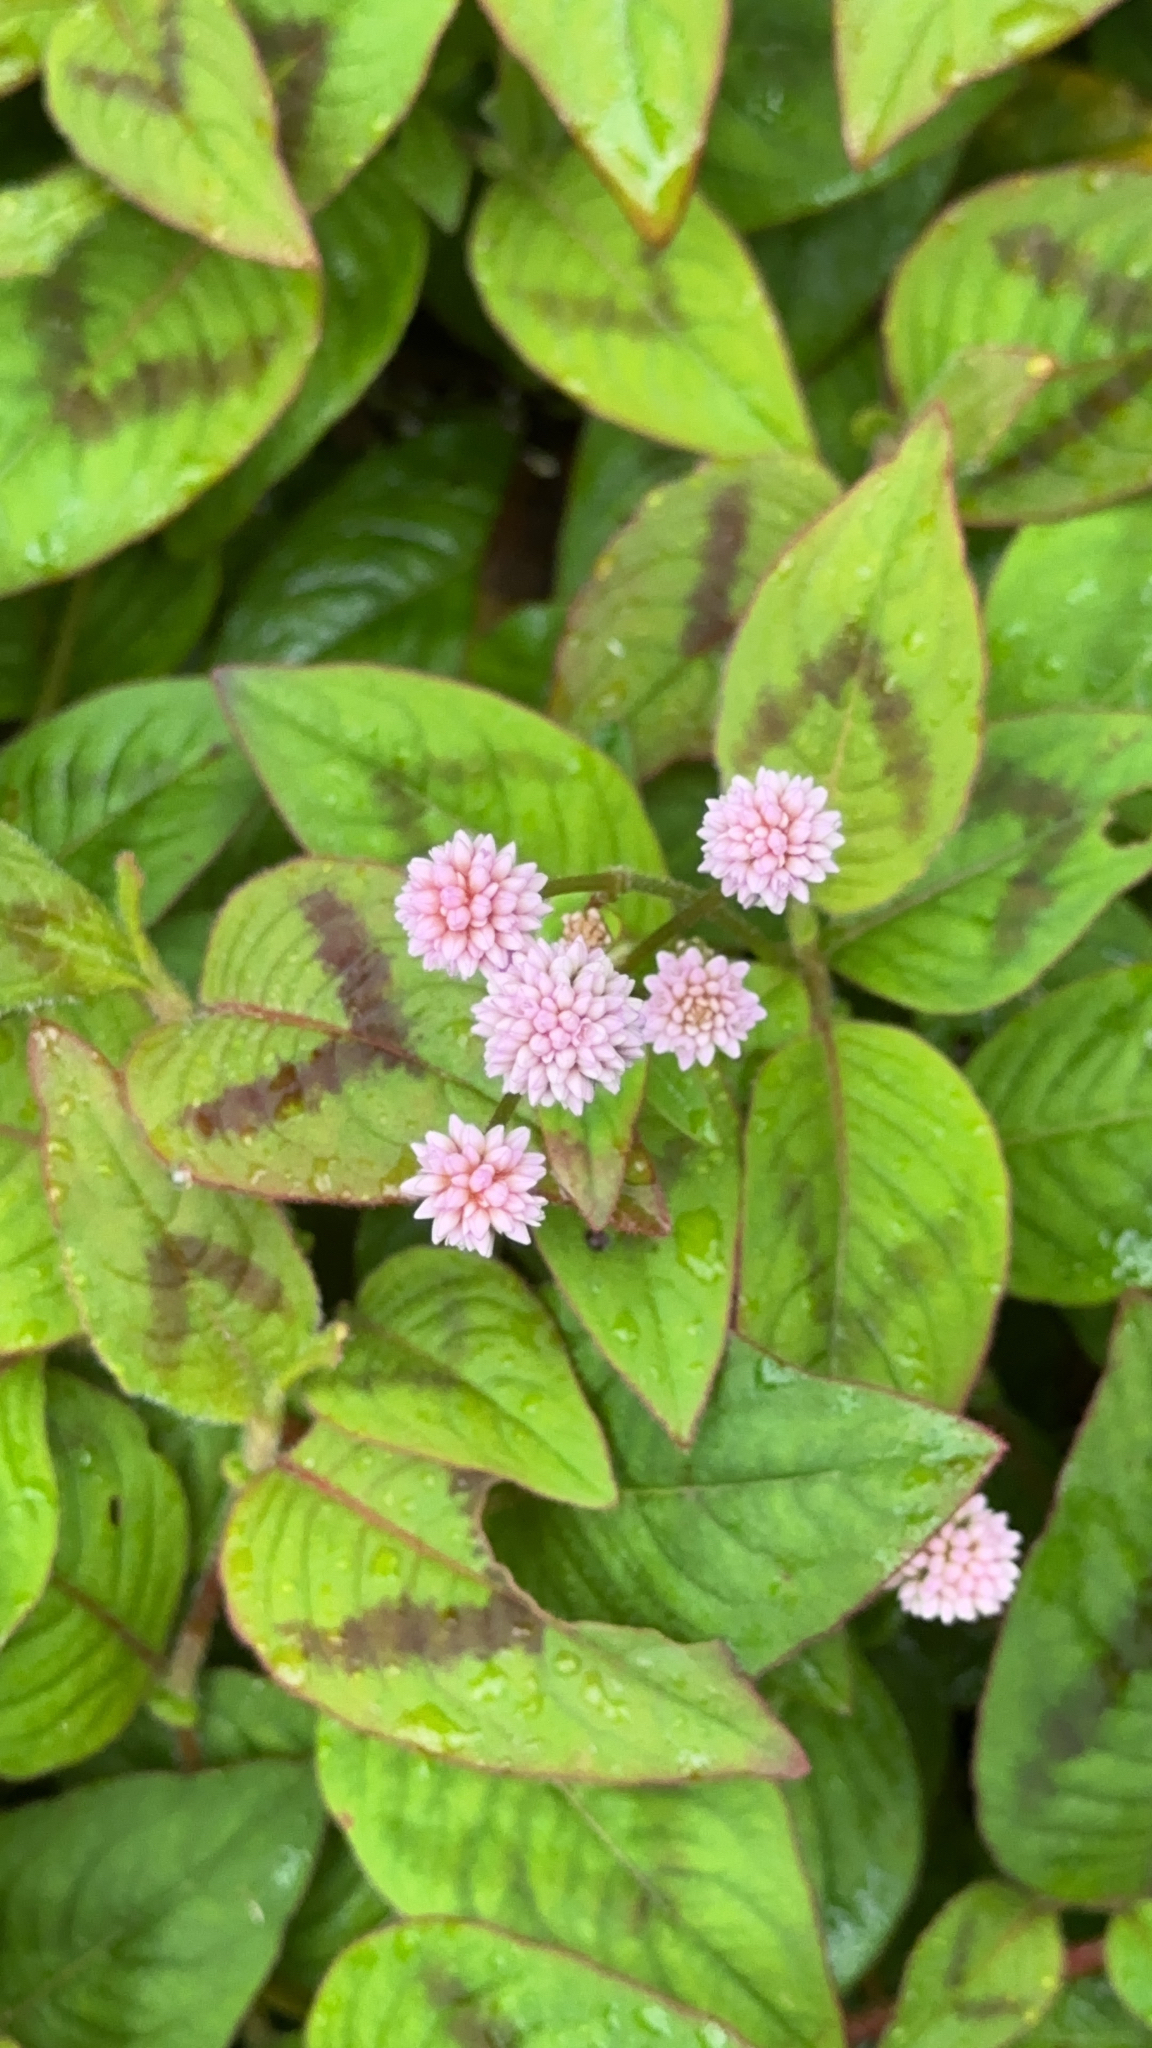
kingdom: Plantae
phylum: Tracheophyta
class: Magnoliopsida
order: Caryophyllales
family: Polygonaceae
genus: Persicaria
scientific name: Persicaria capitata
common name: Pinkhead smartweed
